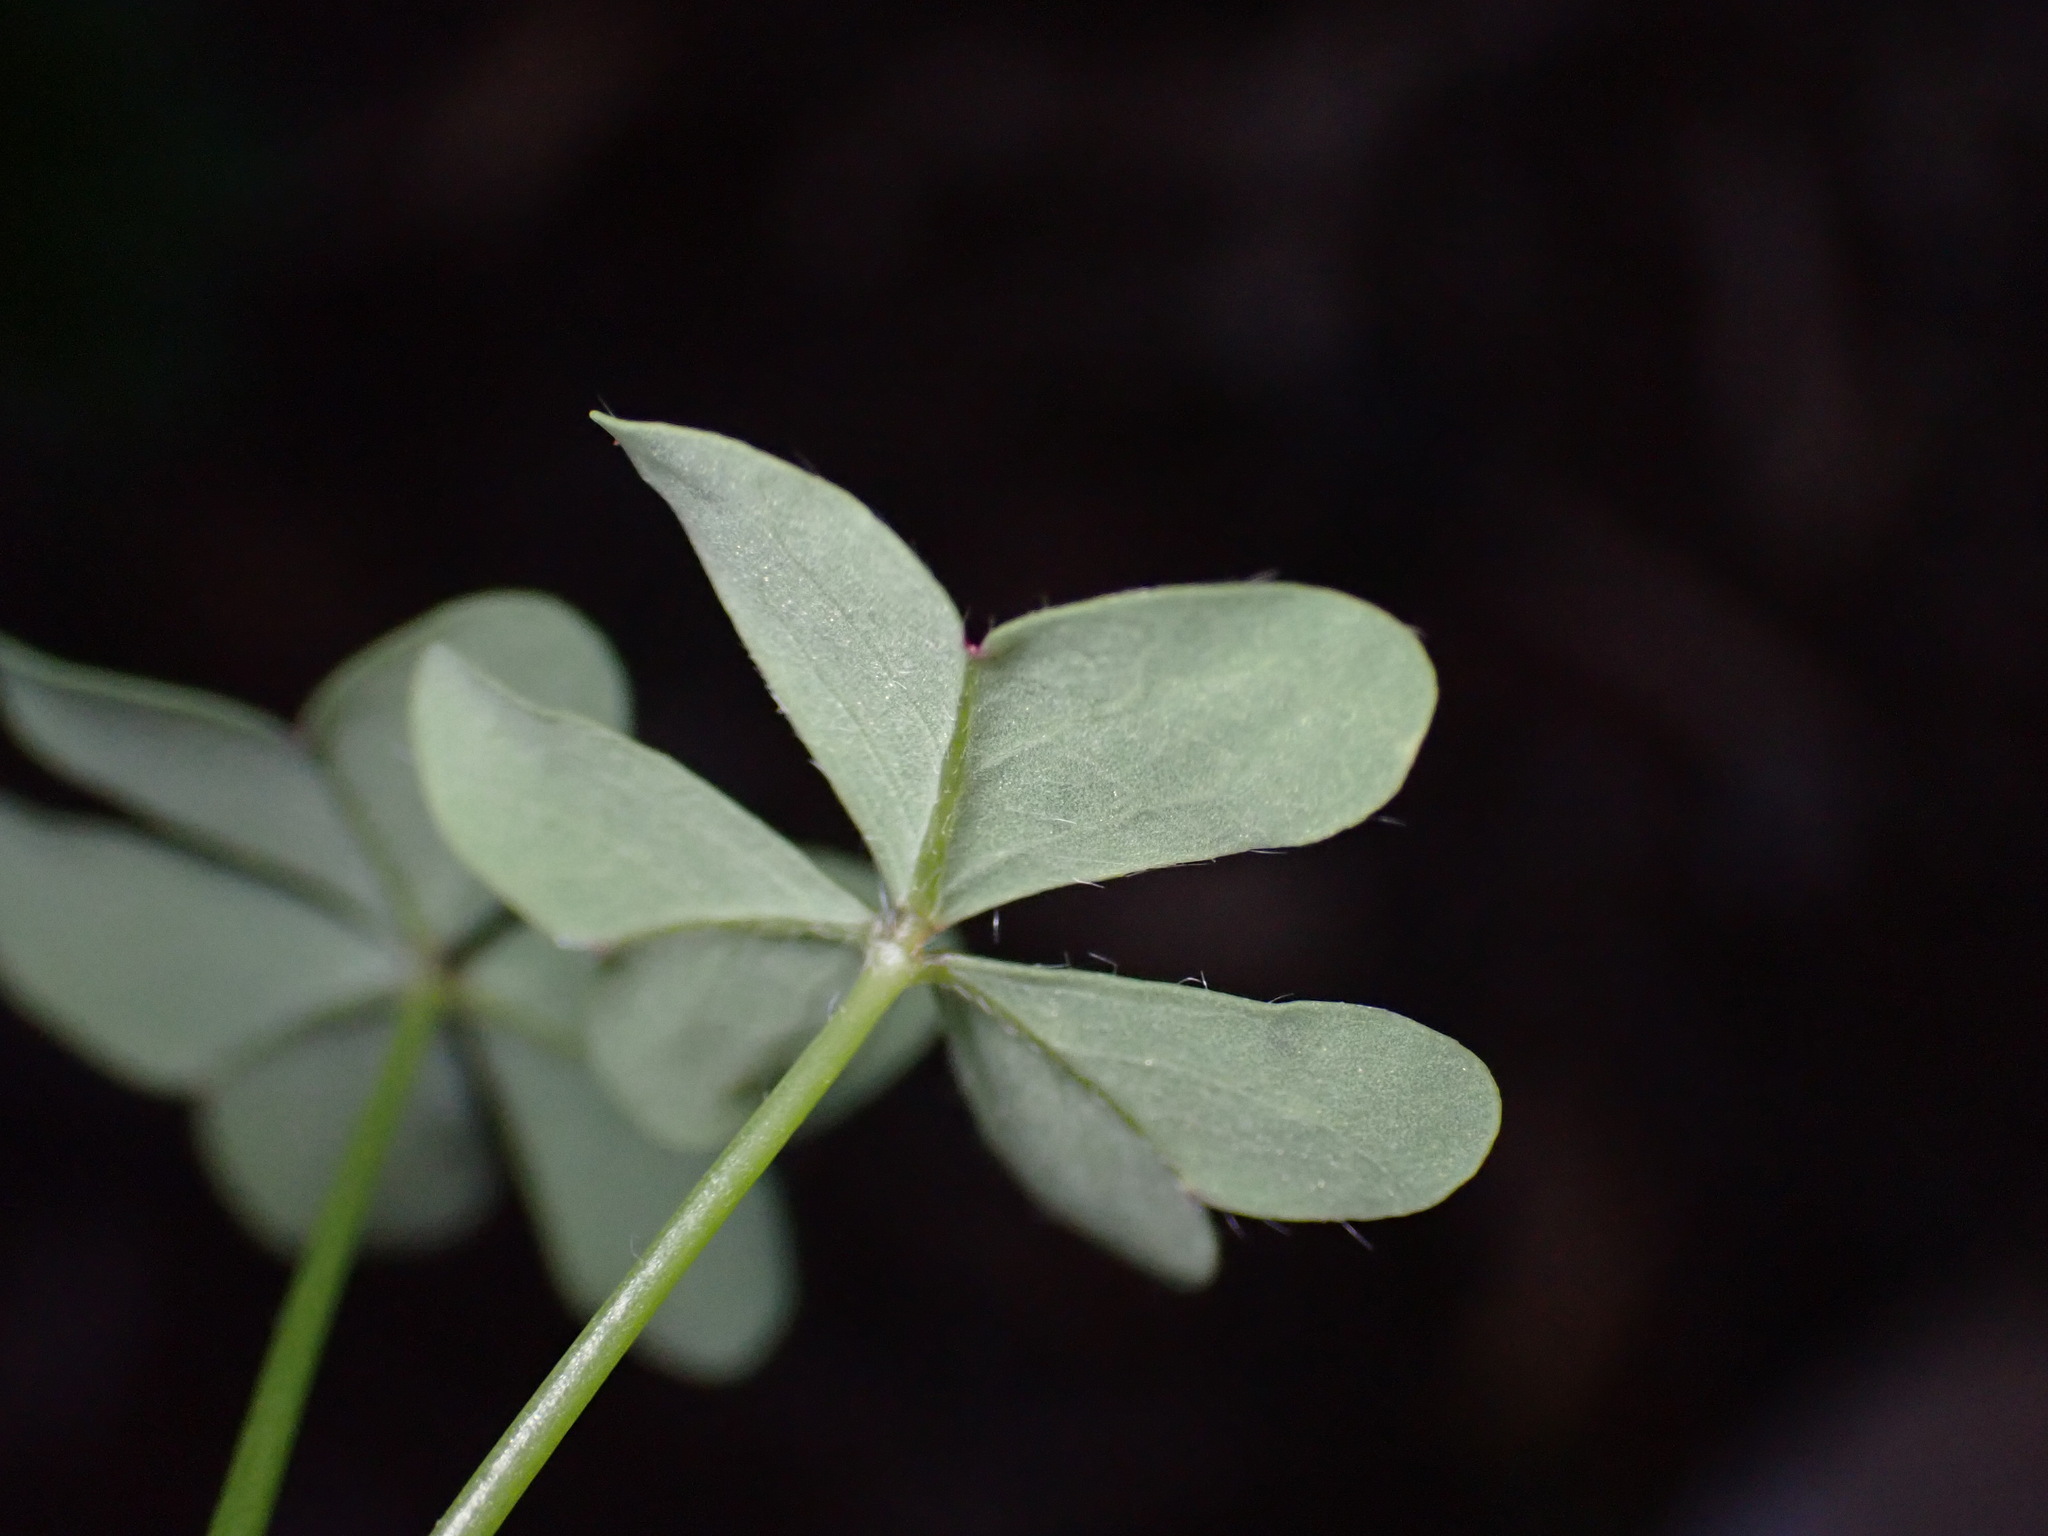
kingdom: Plantae
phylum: Tracheophyta
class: Magnoliopsida
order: Oxalidales
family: Oxalidaceae
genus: Oxalis
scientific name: Oxalis pes-caprae
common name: Bermuda-buttercup
